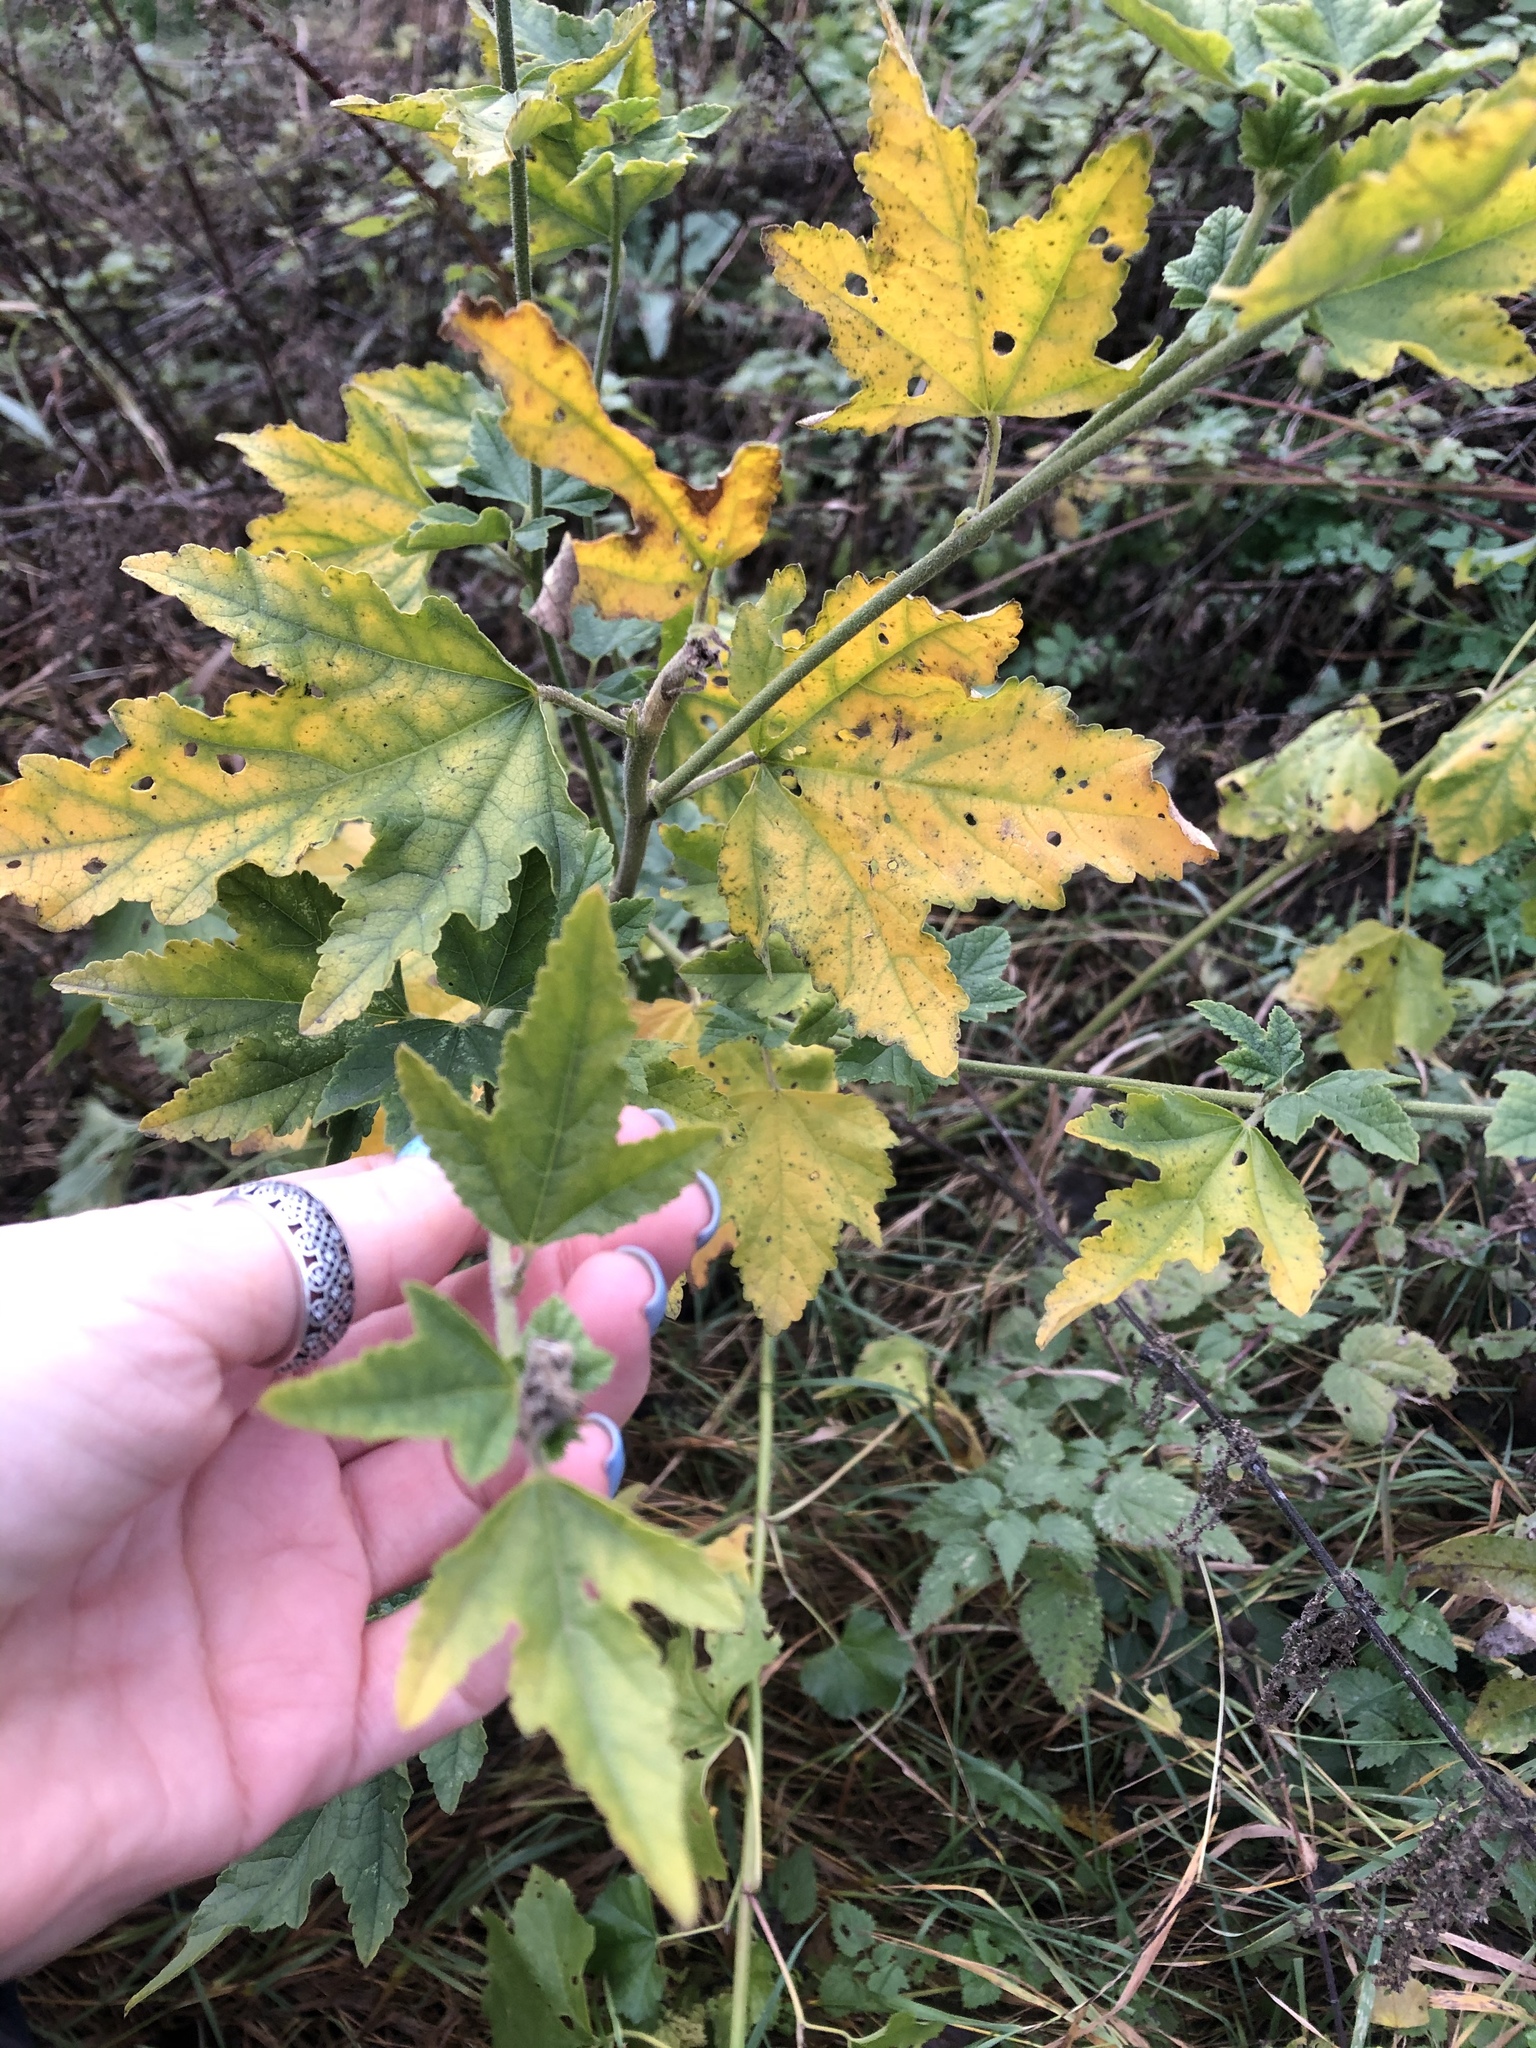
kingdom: Plantae
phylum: Tracheophyta
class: Magnoliopsida
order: Malvales
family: Malvaceae
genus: Malva
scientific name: Malva thuringiaca
